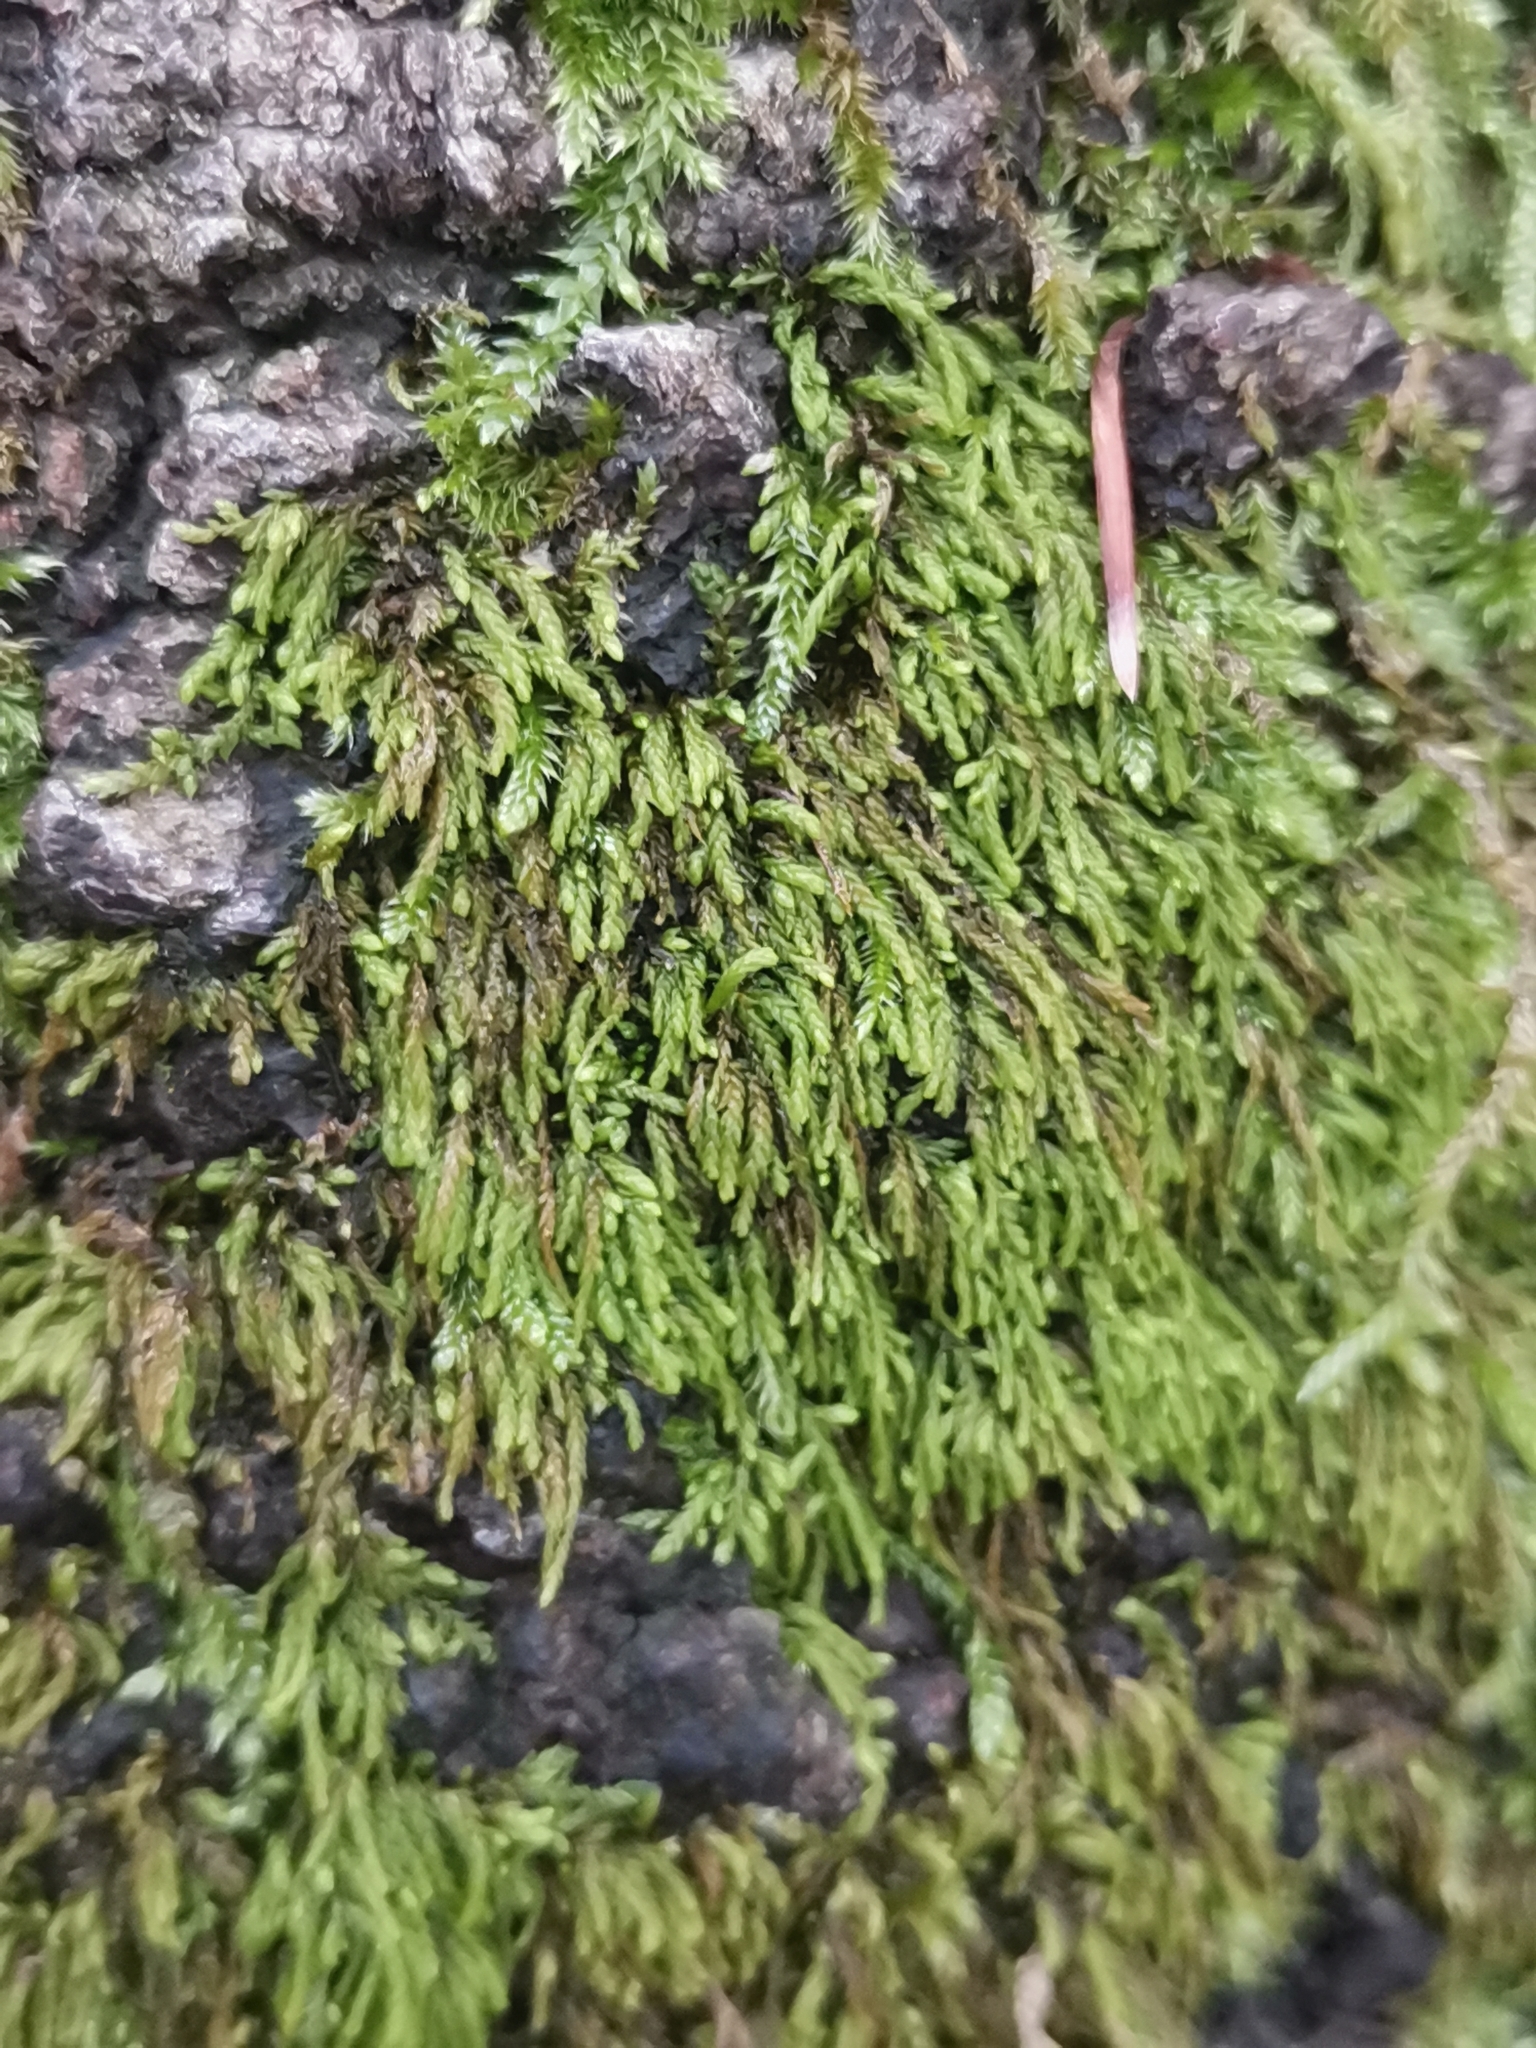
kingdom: Plantae
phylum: Bryophyta
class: Bryopsida
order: Hypnales
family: Pterigynandraceae
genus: Pterigynandrum
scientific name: Pterigynandrum filiforme
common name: Capillary wing moss
